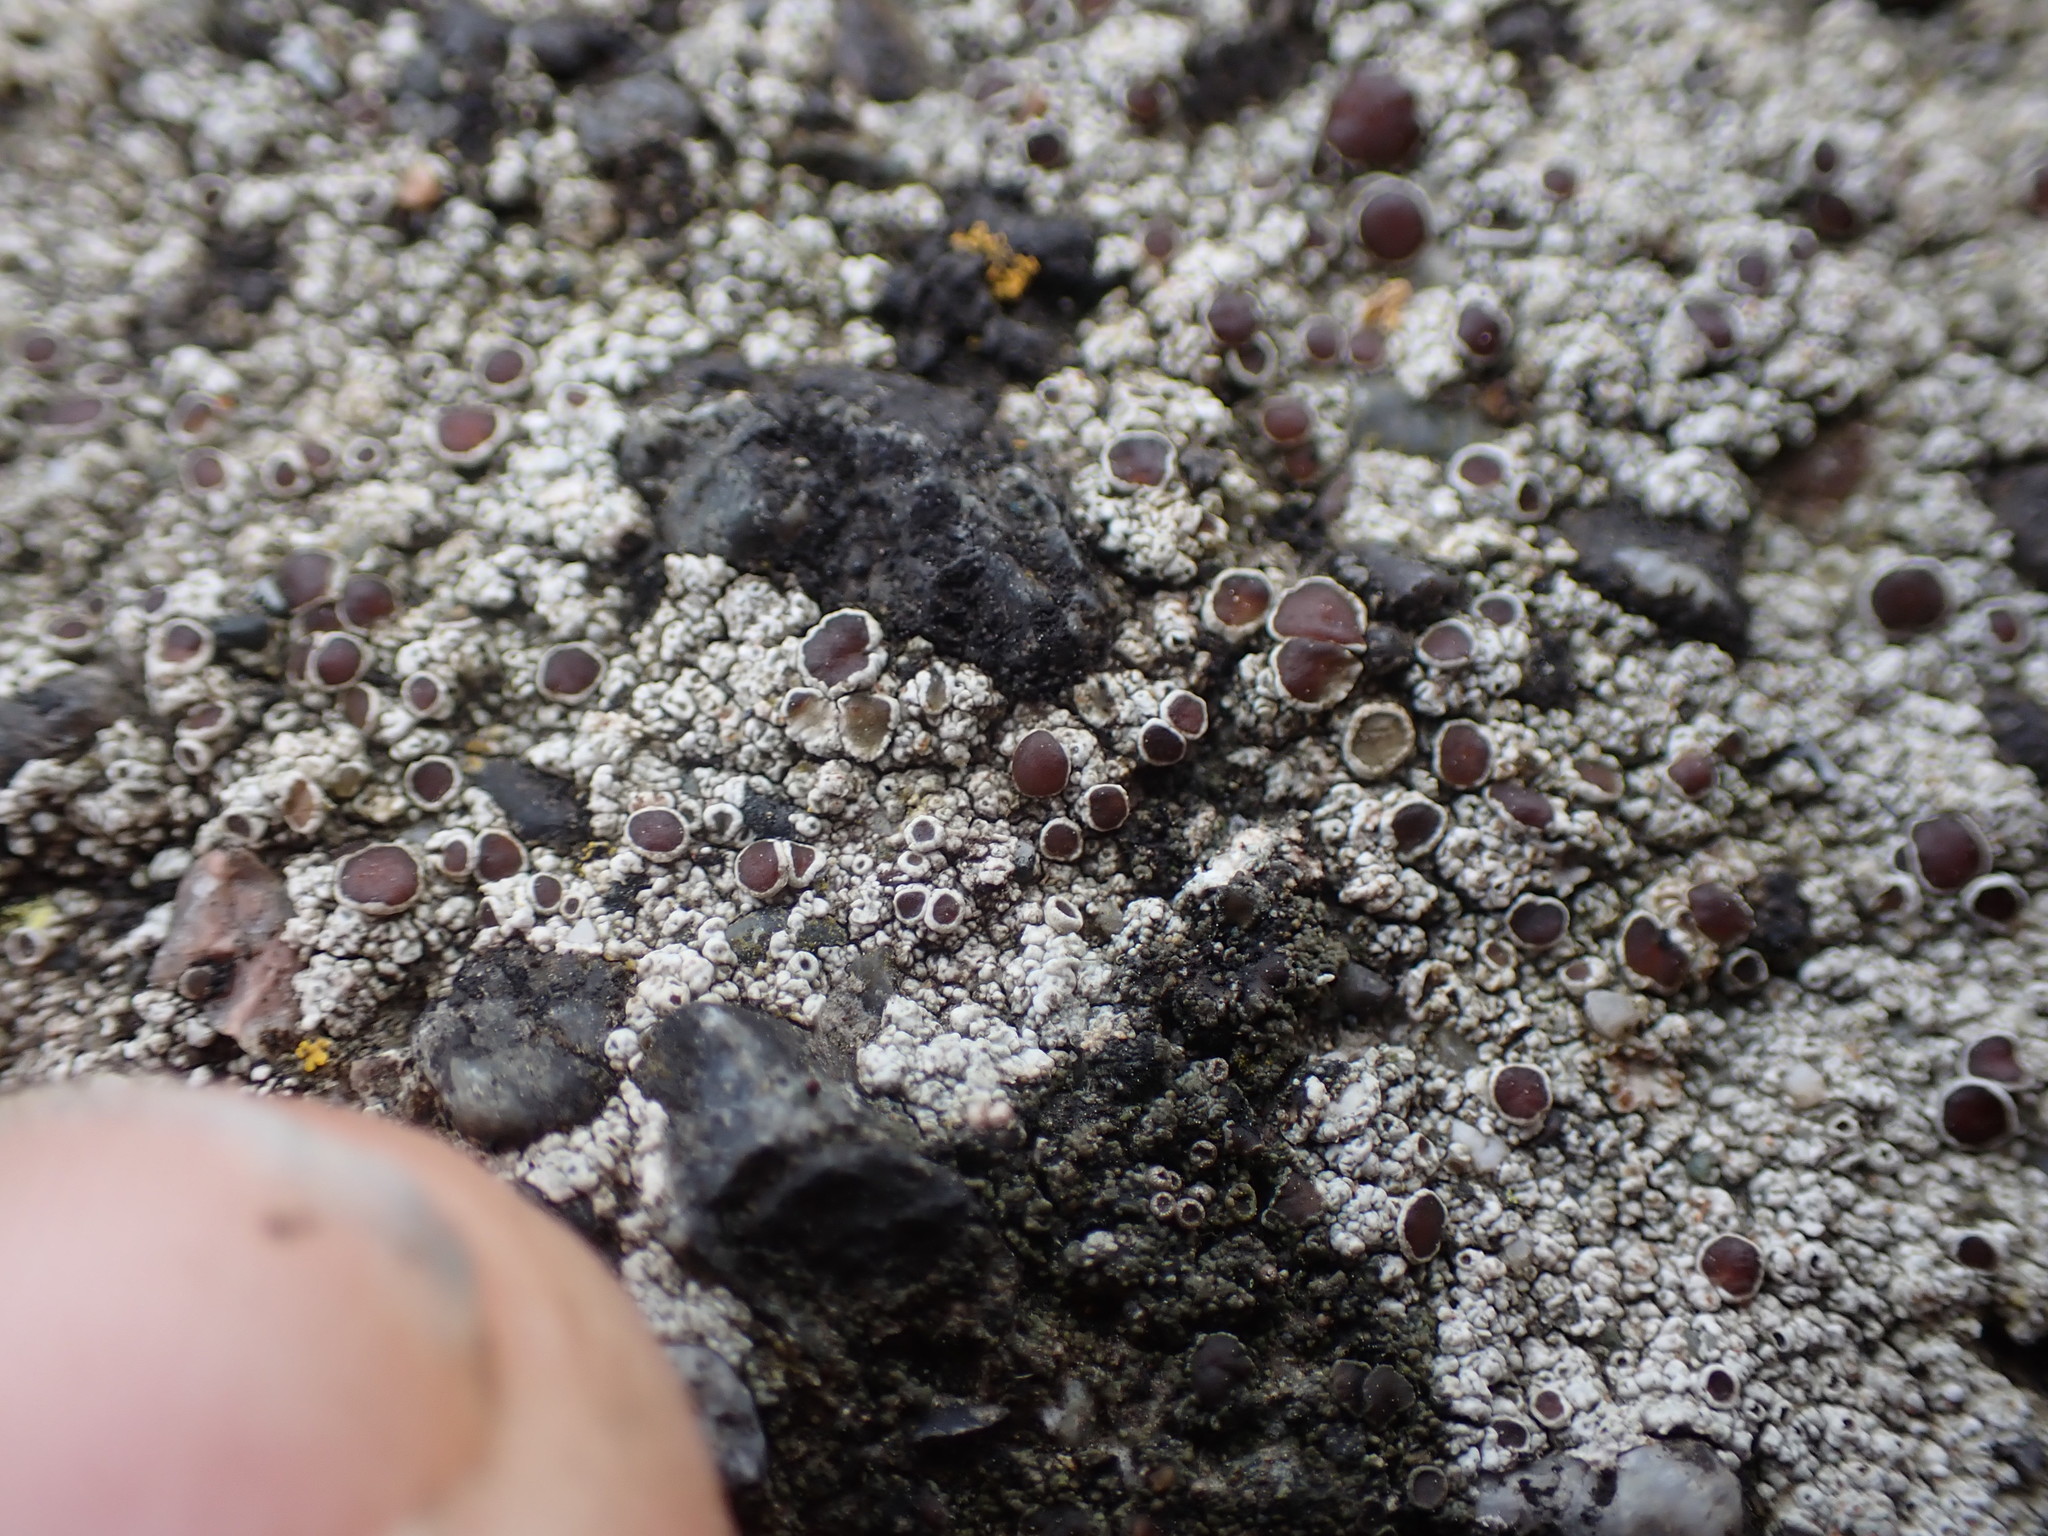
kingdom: Fungi
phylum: Ascomycota
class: Lecanoromycetes
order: Lecanorales
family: Lecanoraceae
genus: Lecidella
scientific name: Lecidella asema
